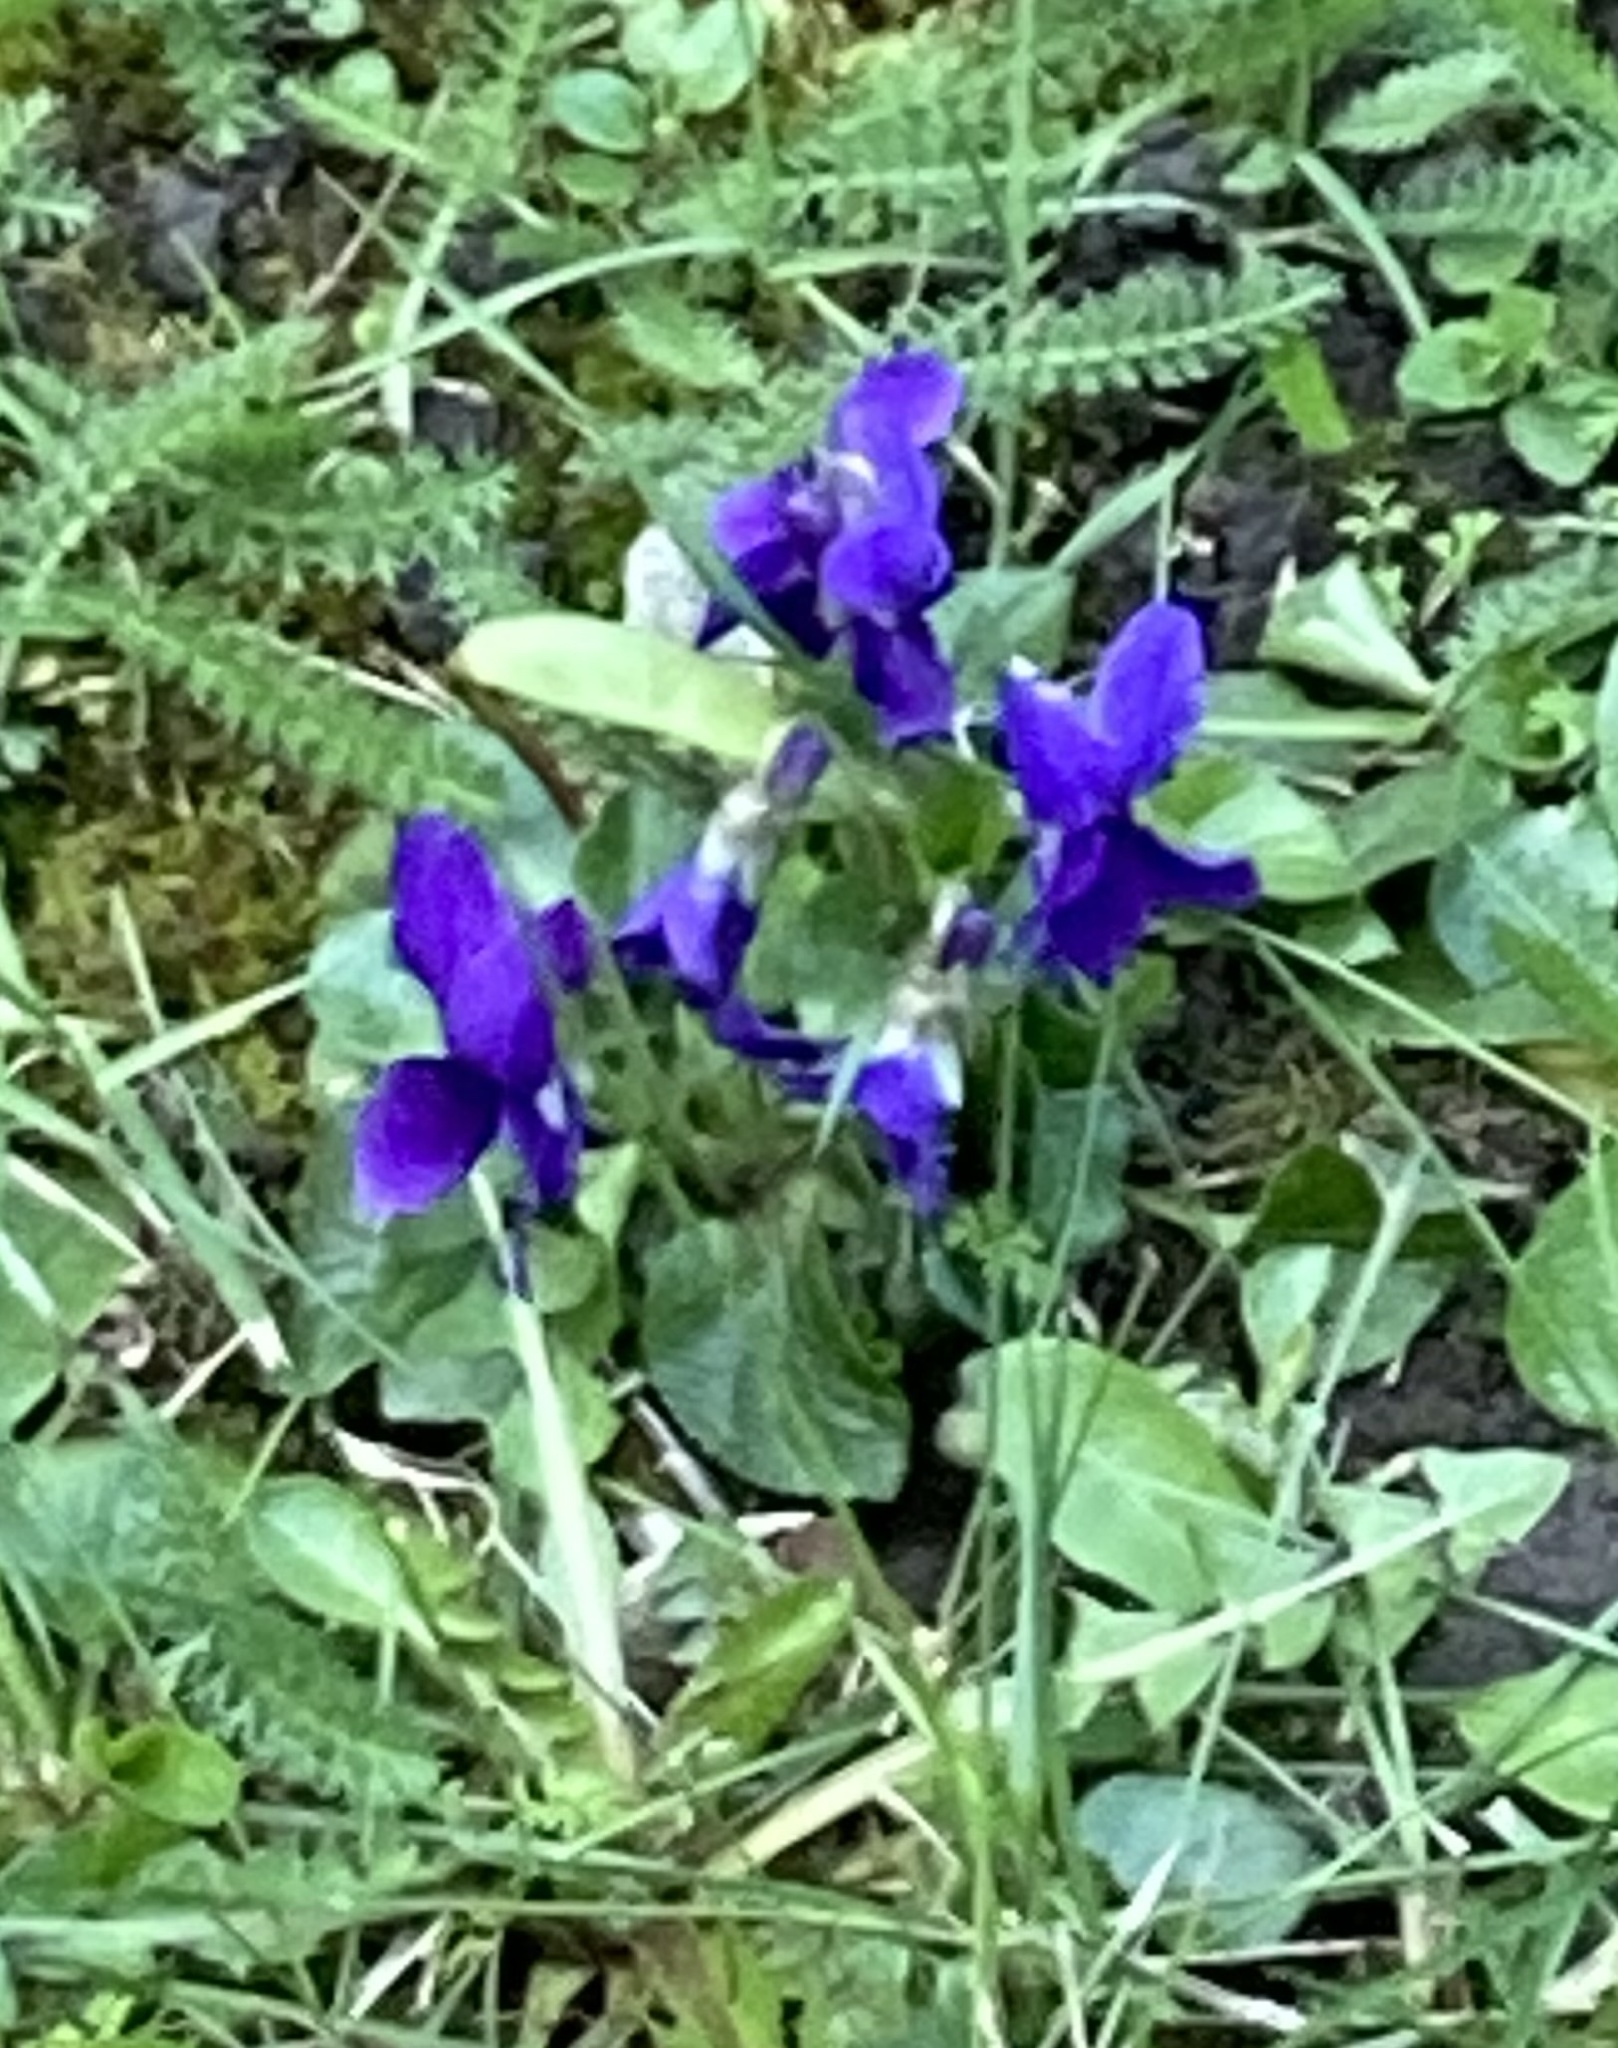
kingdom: Plantae
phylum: Tracheophyta
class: Magnoliopsida
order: Malpighiales
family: Violaceae
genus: Viola
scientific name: Viola odorata
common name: Sweet violet
